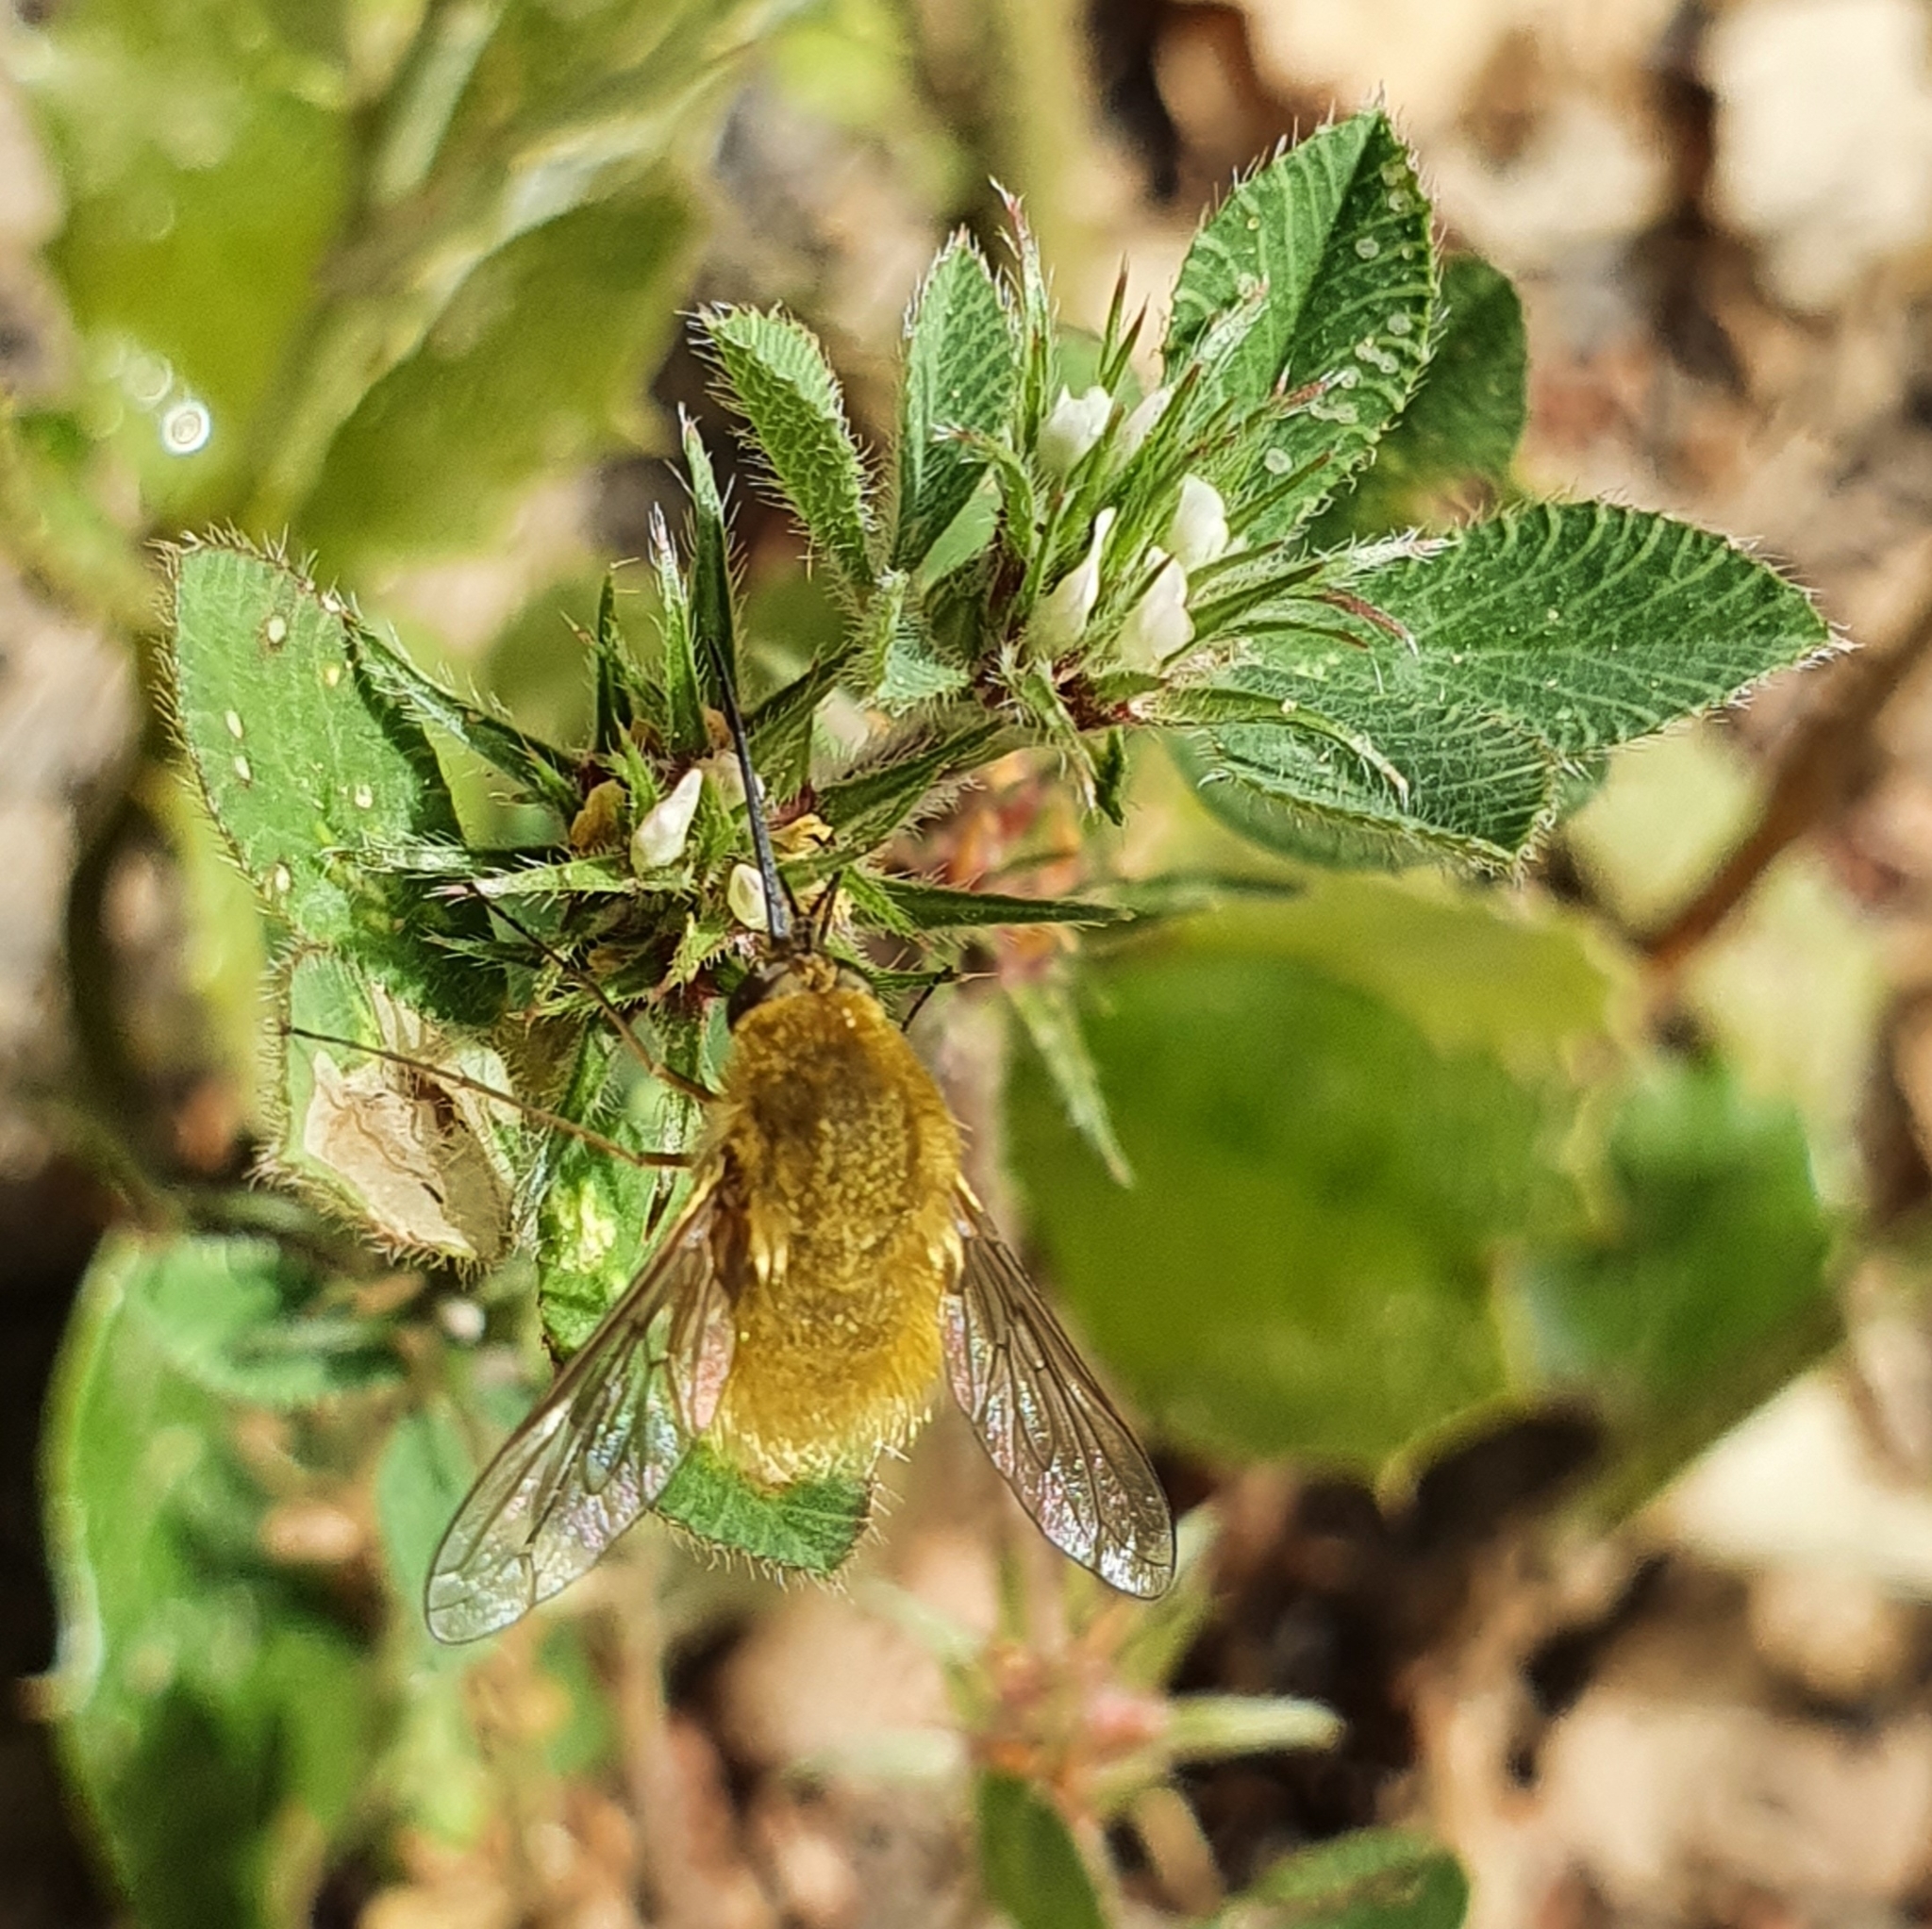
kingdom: Plantae
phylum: Tracheophyta
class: Magnoliopsida
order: Fabales
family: Fabaceae
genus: Trifolium
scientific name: Trifolium scabrum
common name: Rough clover
